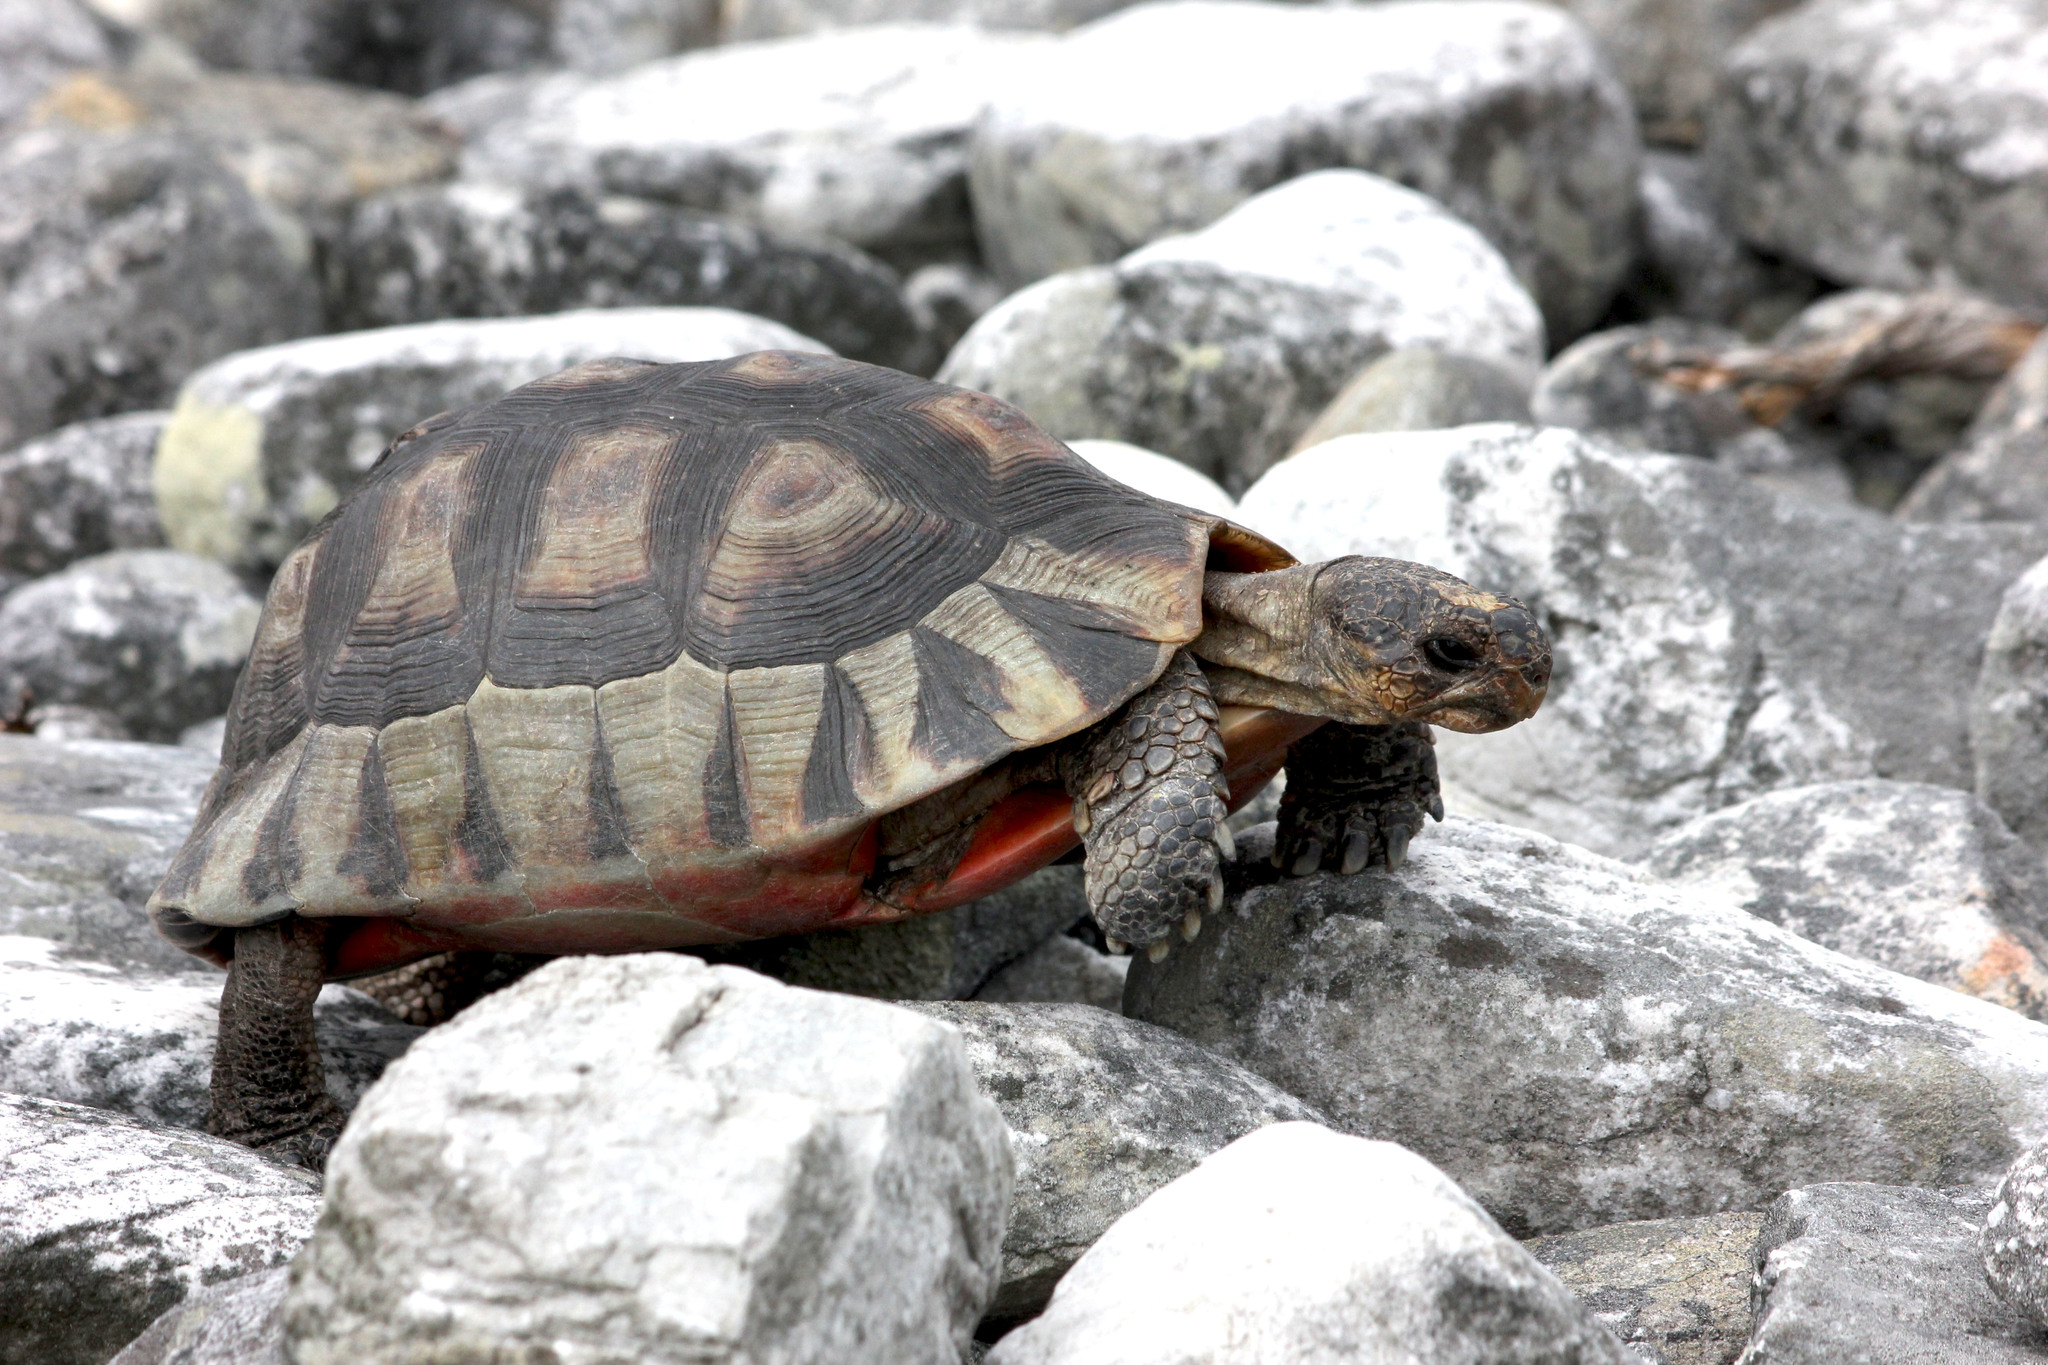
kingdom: Animalia
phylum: Chordata
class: Testudines
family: Testudinidae
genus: Chersina
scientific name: Chersina angulata
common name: South african bowsprit tortoise
